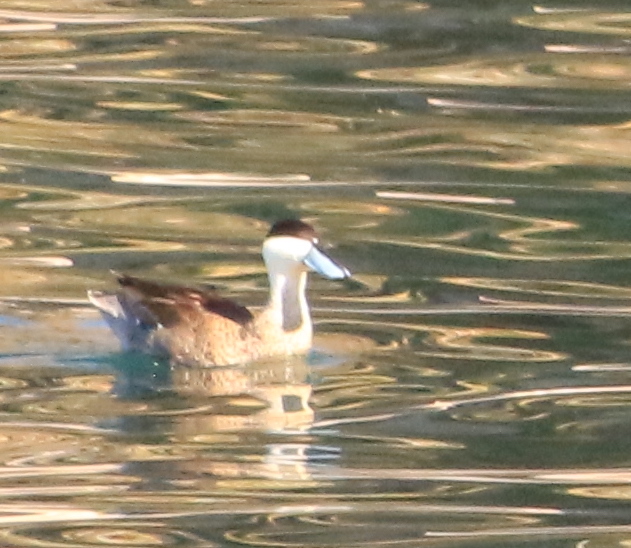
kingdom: Animalia
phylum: Chordata
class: Aves
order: Anseriformes
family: Anatidae
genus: Spatula
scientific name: Spatula puna
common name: Puna teal
